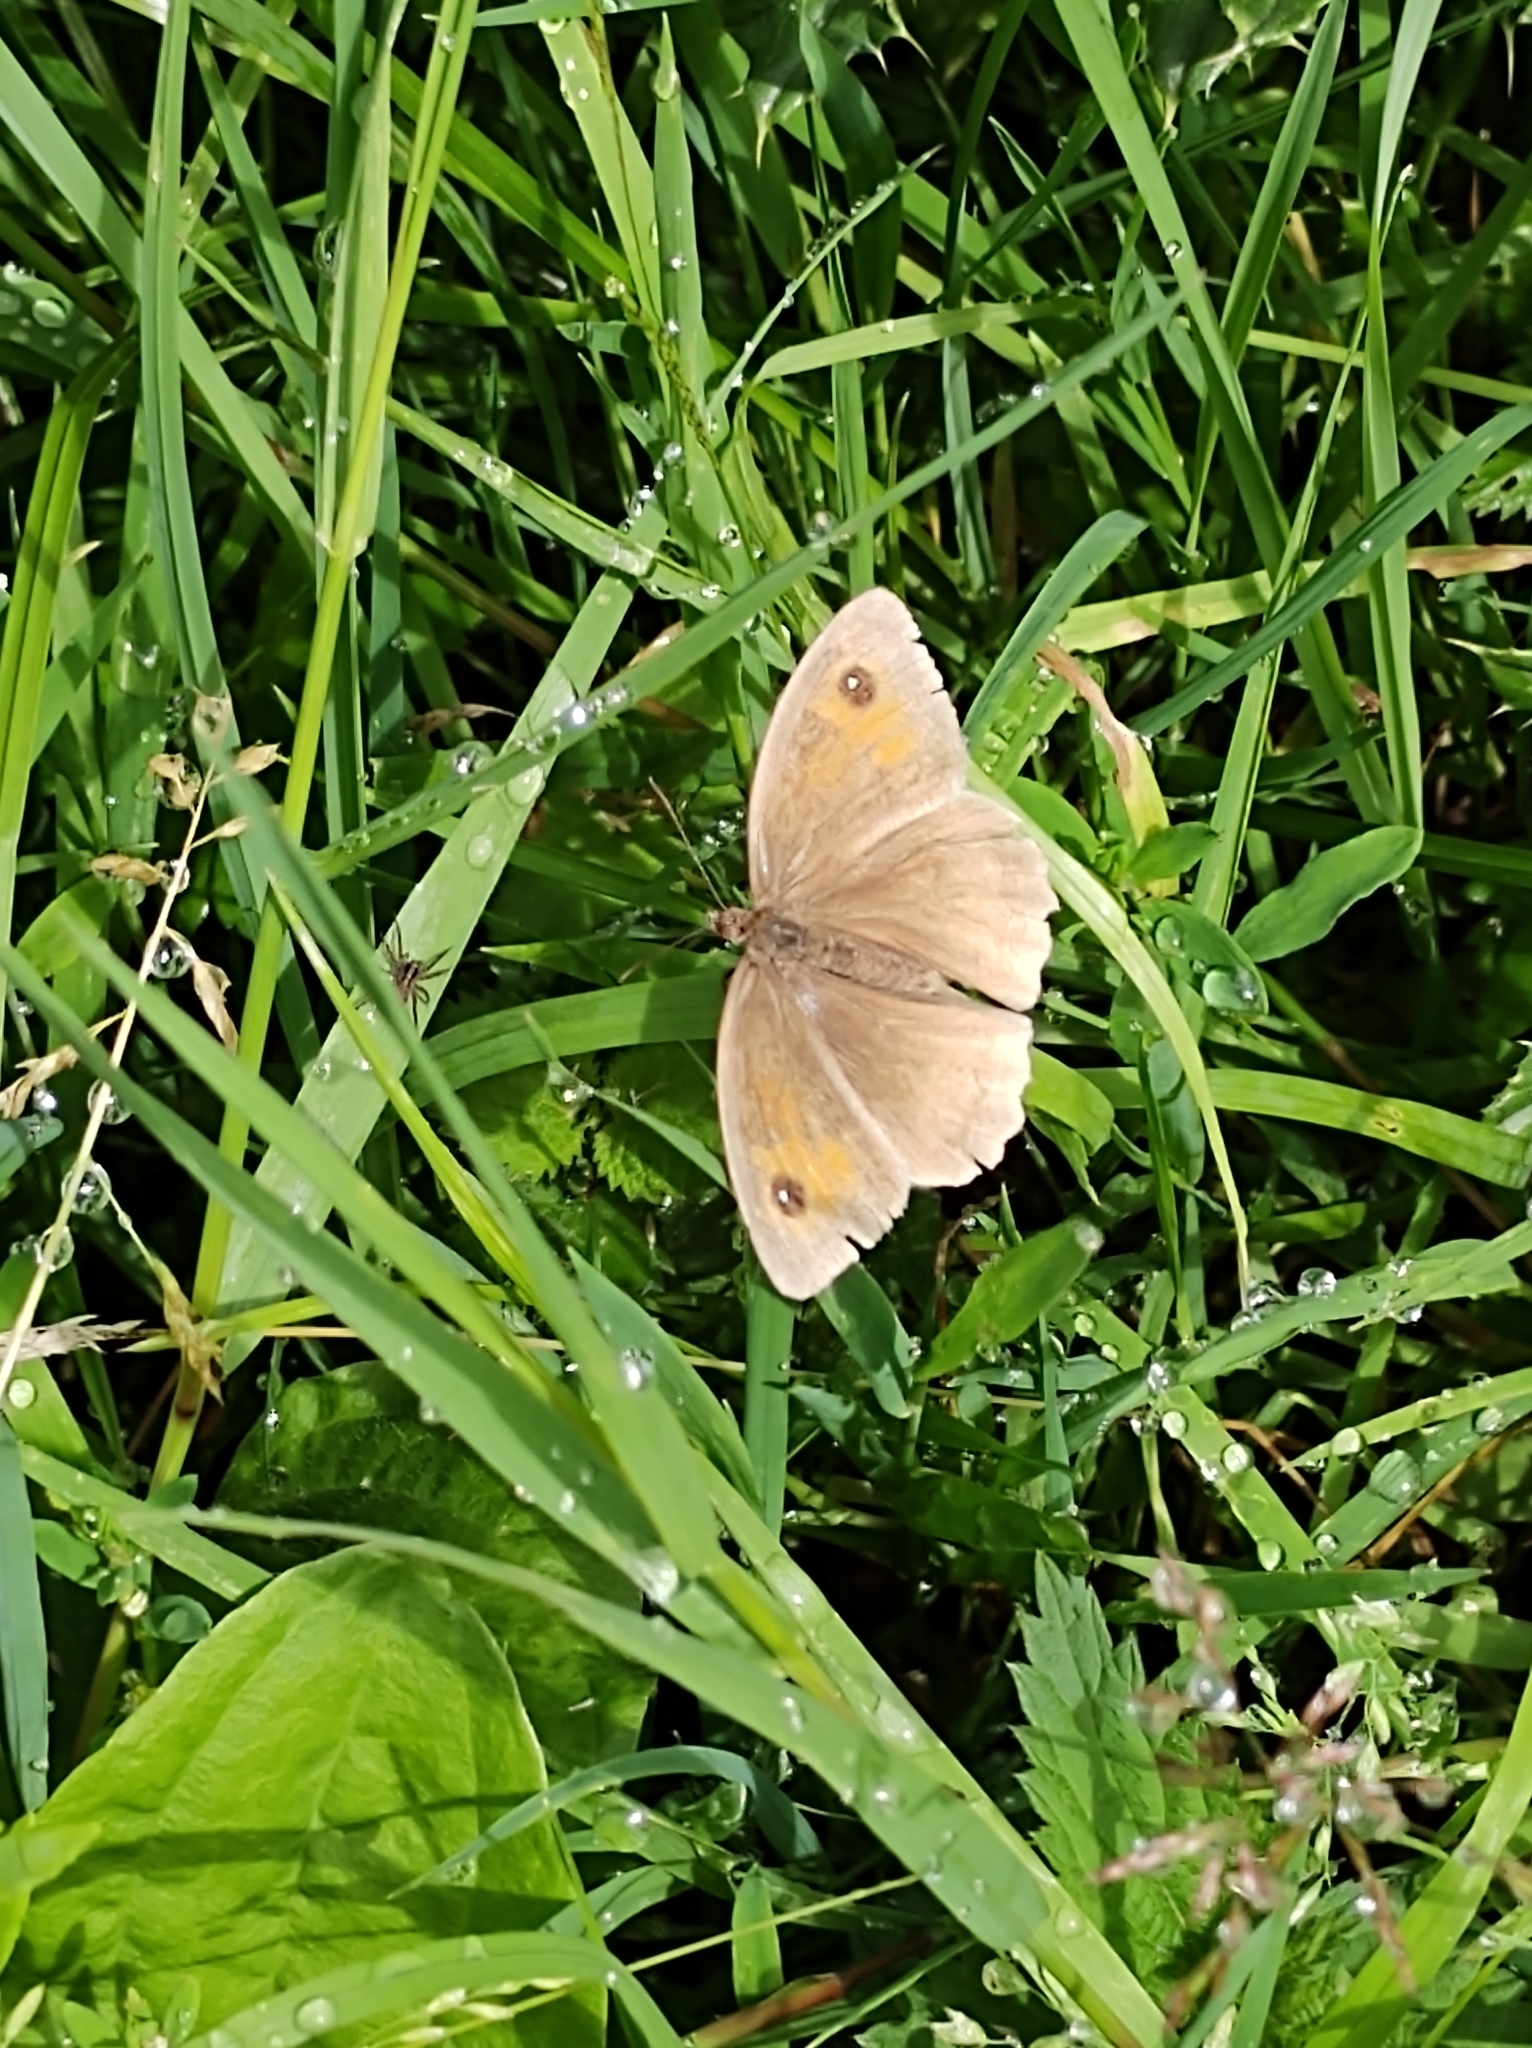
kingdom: Animalia
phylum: Arthropoda
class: Insecta
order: Lepidoptera
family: Nymphalidae
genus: Maniola
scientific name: Maniola jurtina
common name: Meadow brown
